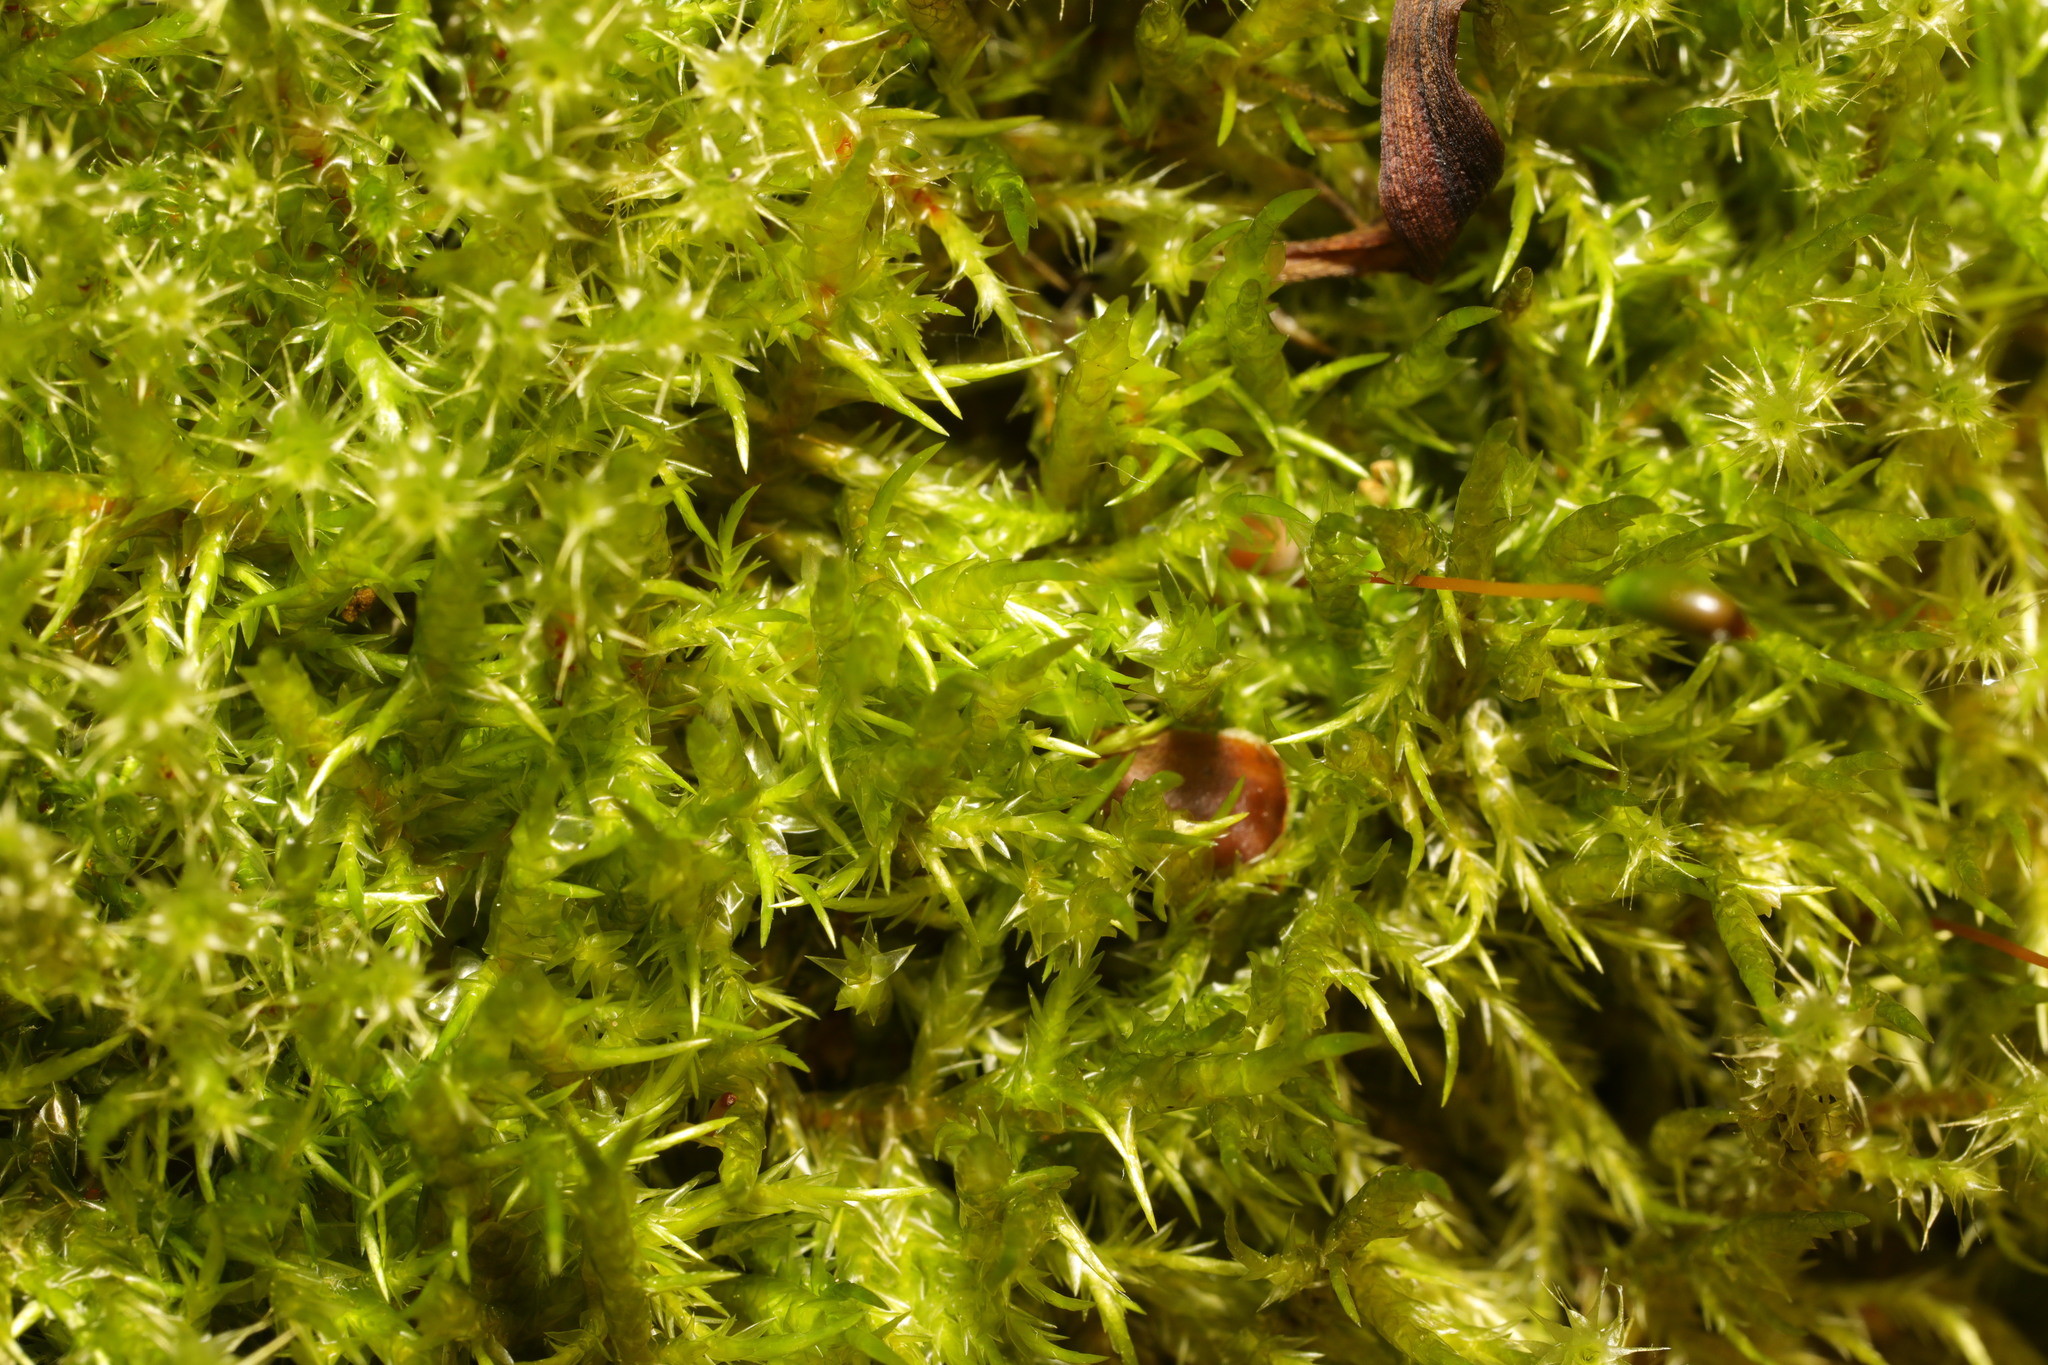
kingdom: Plantae
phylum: Bryophyta
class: Bryopsida
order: Hypnales
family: Pylaisiaceae
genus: Calliergonella
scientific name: Calliergonella cuspidata
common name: Common large wetland moss
